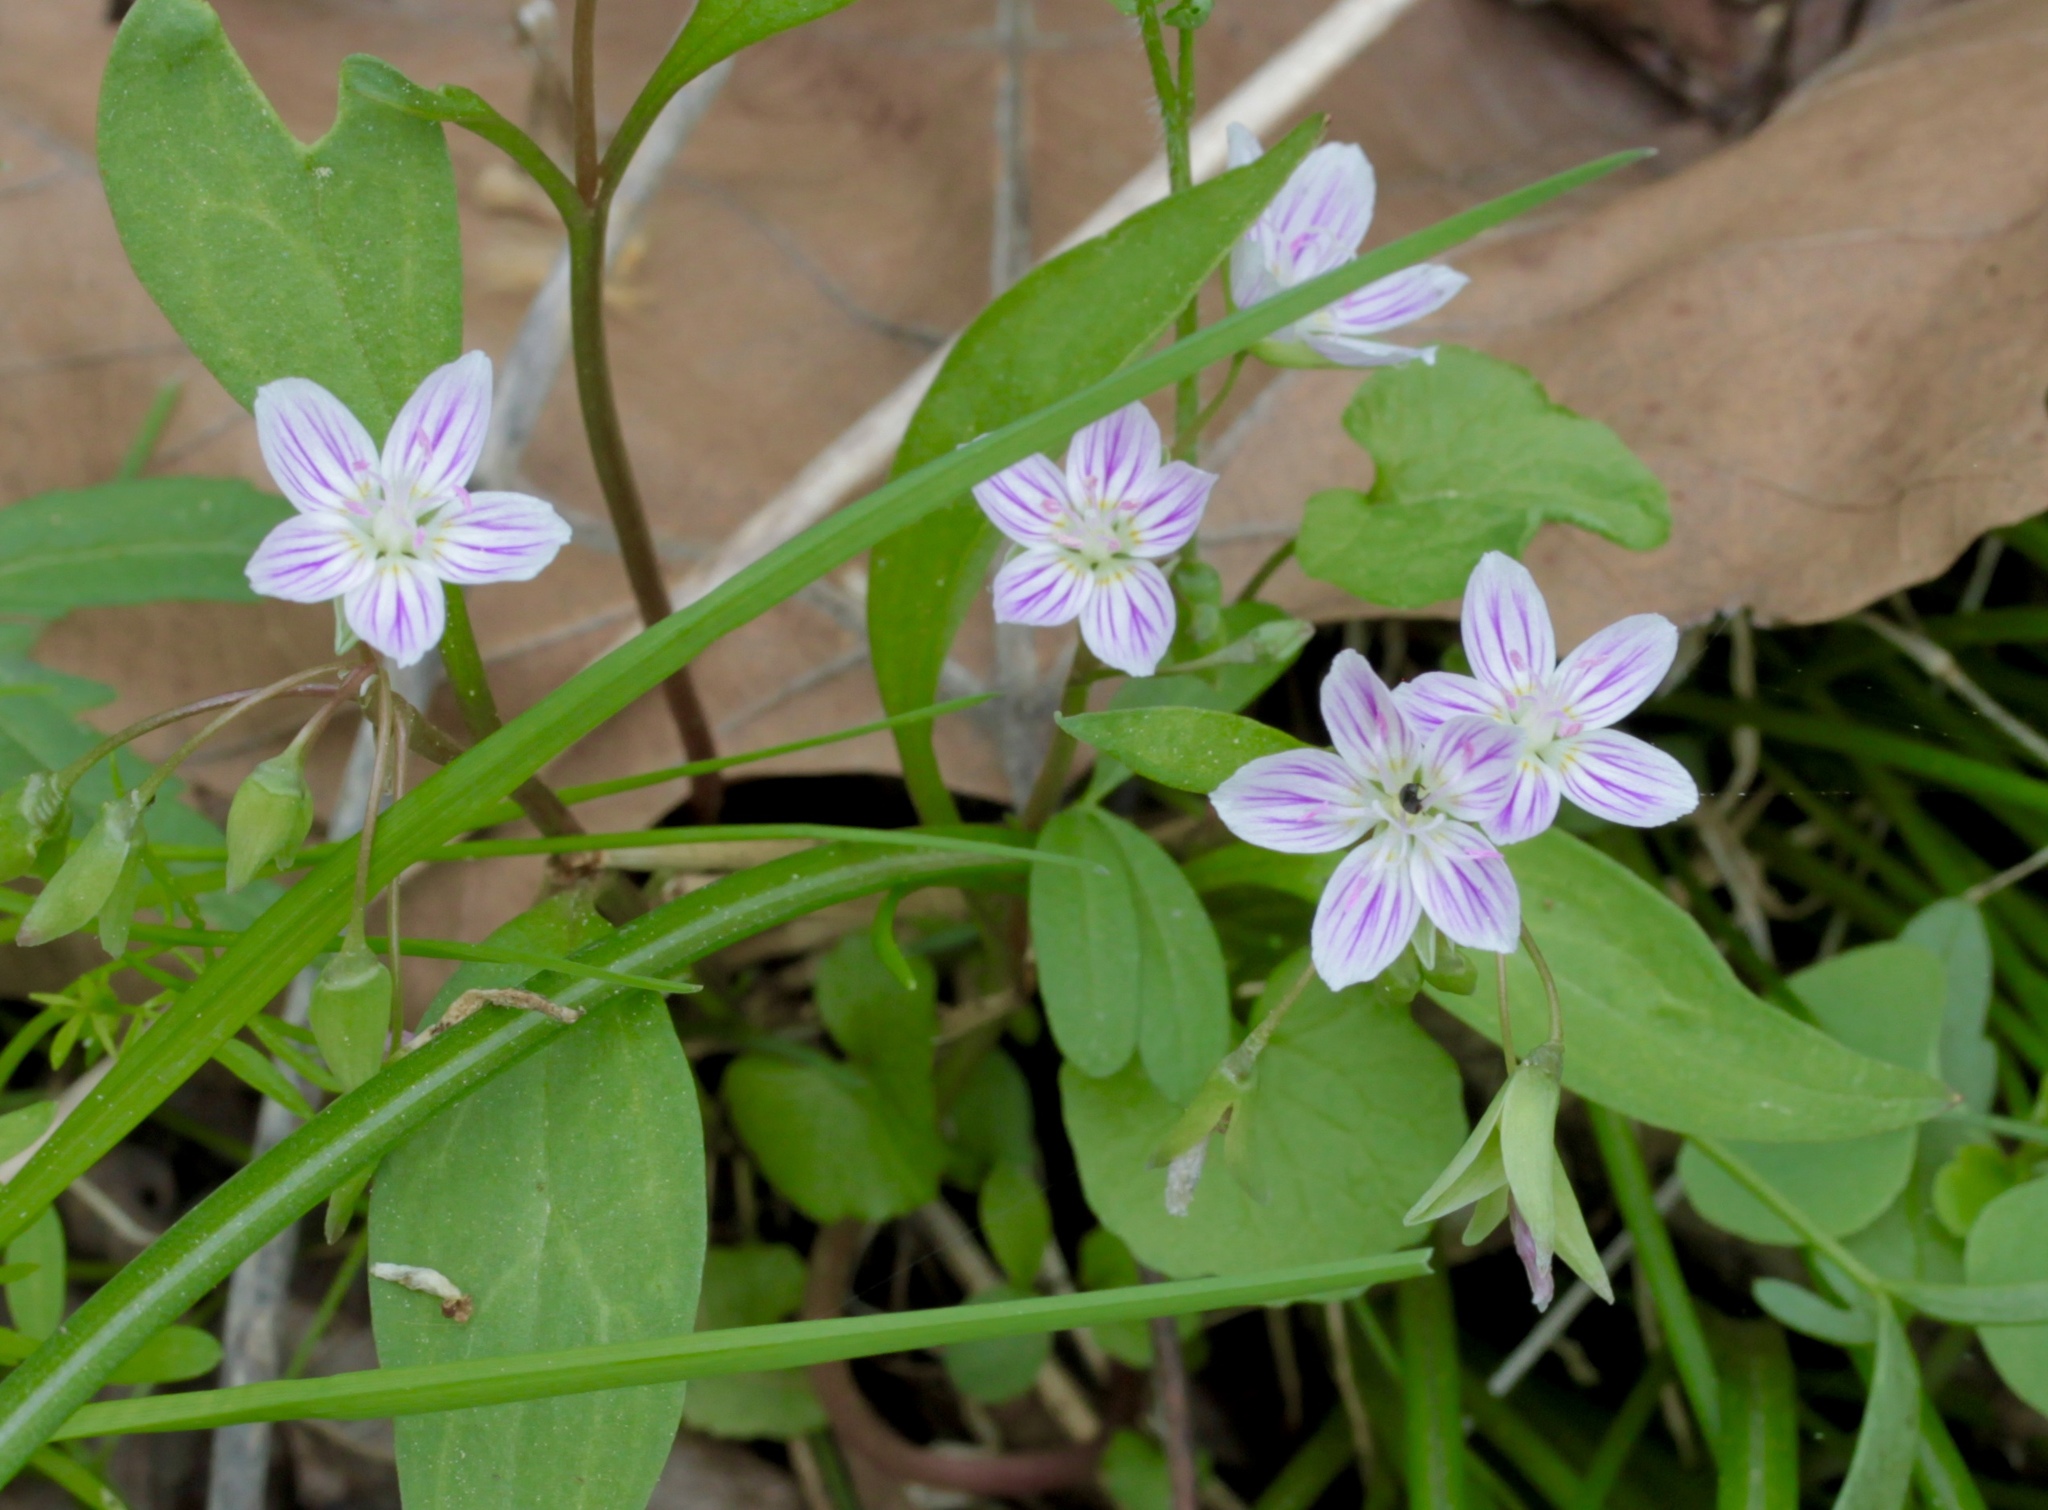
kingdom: Plantae
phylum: Tracheophyta
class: Magnoliopsida
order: Caryophyllales
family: Montiaceae
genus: Claytonia
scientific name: Claytonia caroliniana
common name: Carolina spring beauty
